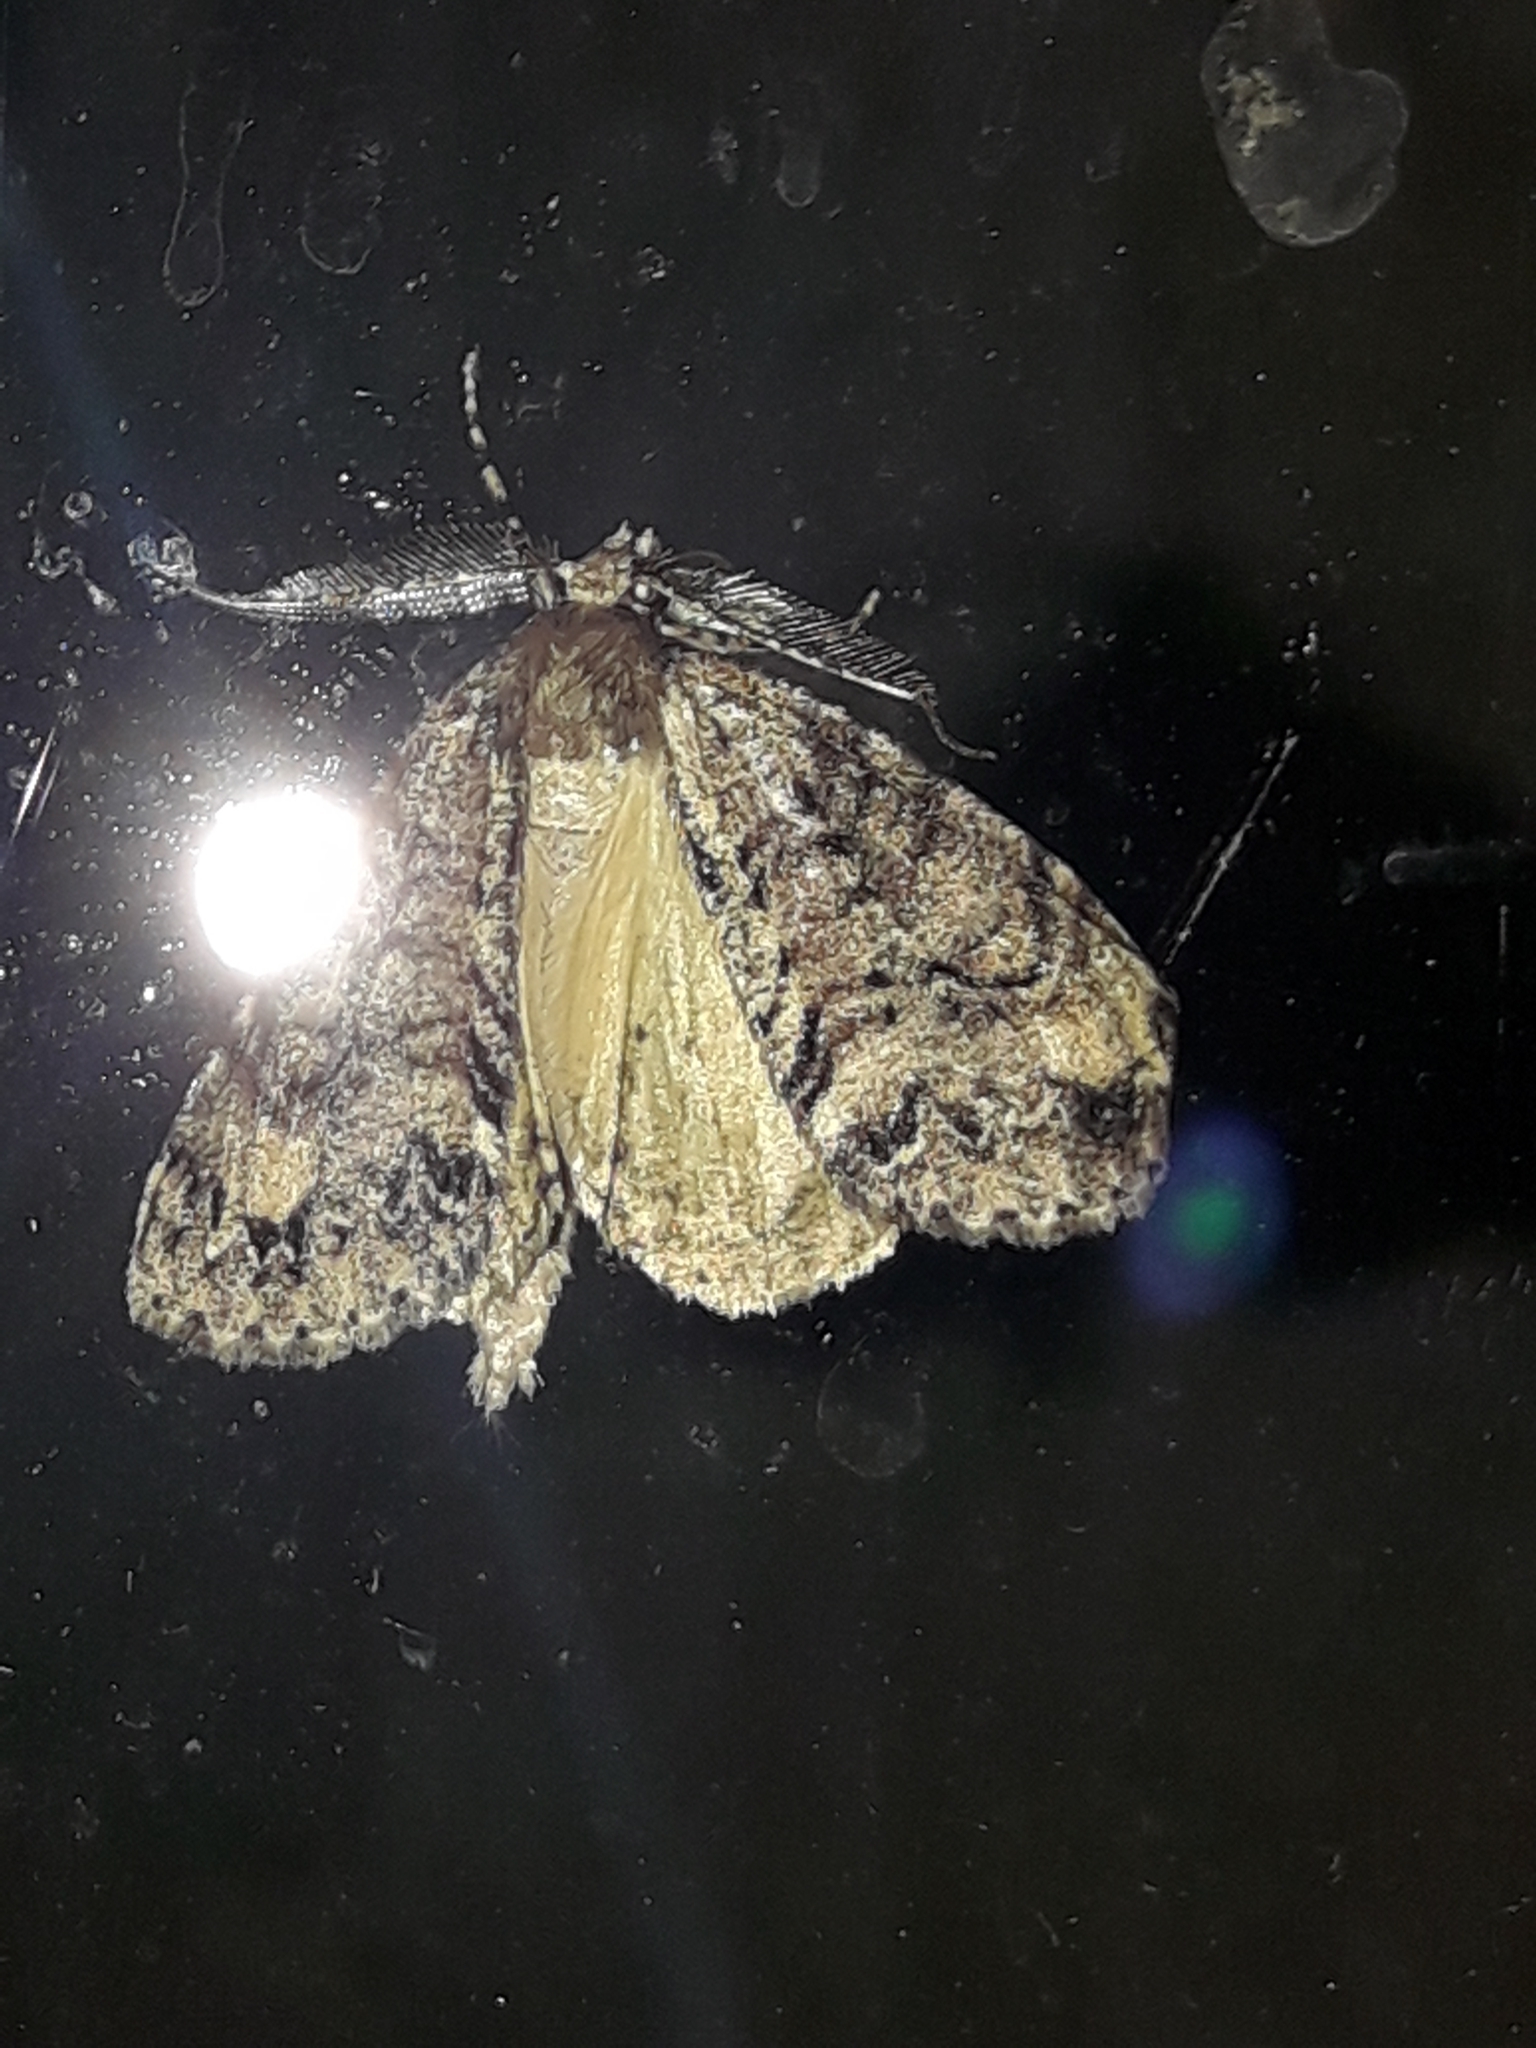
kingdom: Animalia
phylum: Arthropoda
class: Insecta
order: Lepidoptera
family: Geometridae
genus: Pseudocoremia
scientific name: Pseudocoremia suavis
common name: Common forest looper
